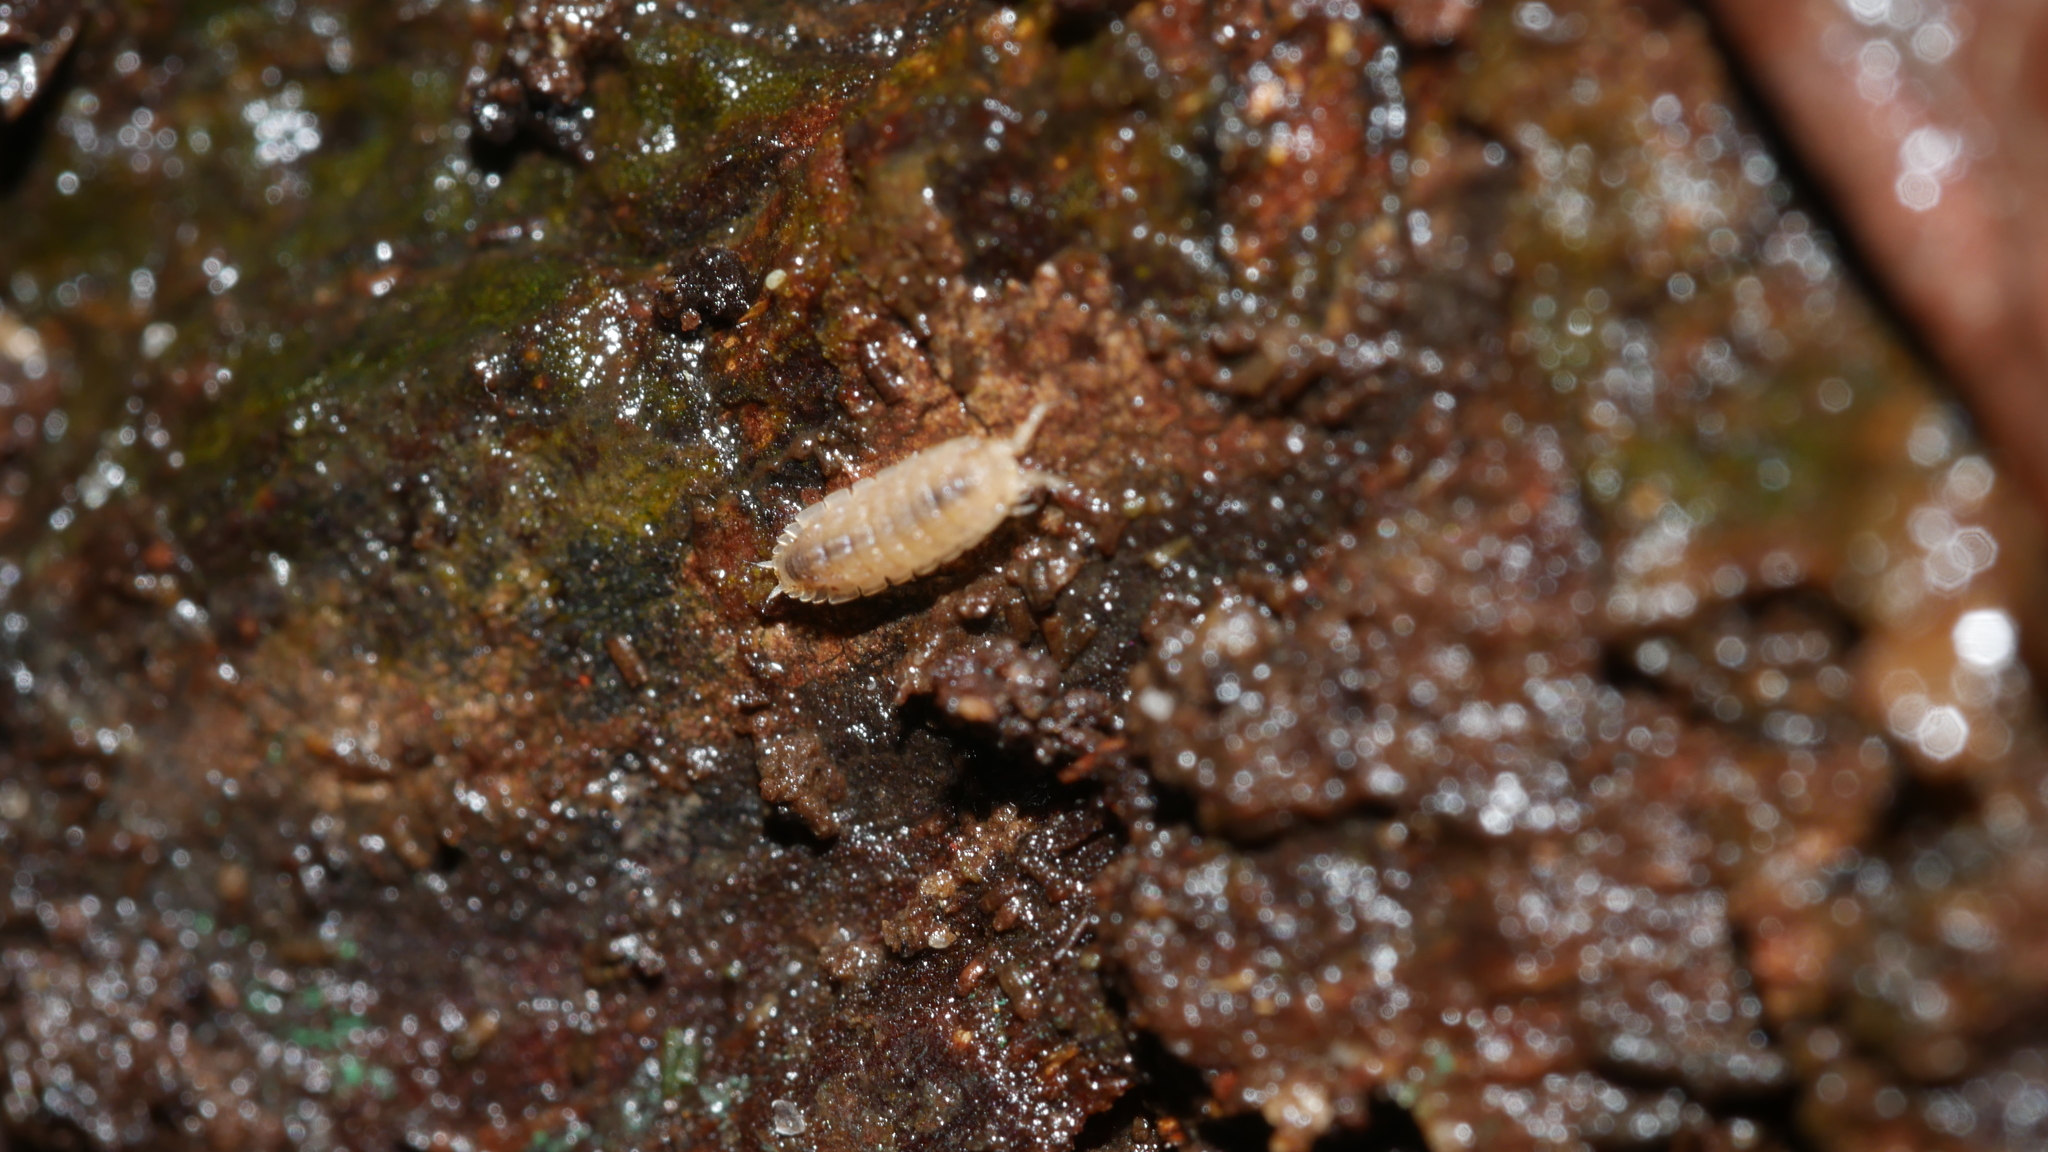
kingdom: Animalia
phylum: Arthropoda
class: Malacostraca
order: Isopoda
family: Trichoniscidae
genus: Haplophthalmus
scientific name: Haplophthalmus danicus
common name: Pillbug
